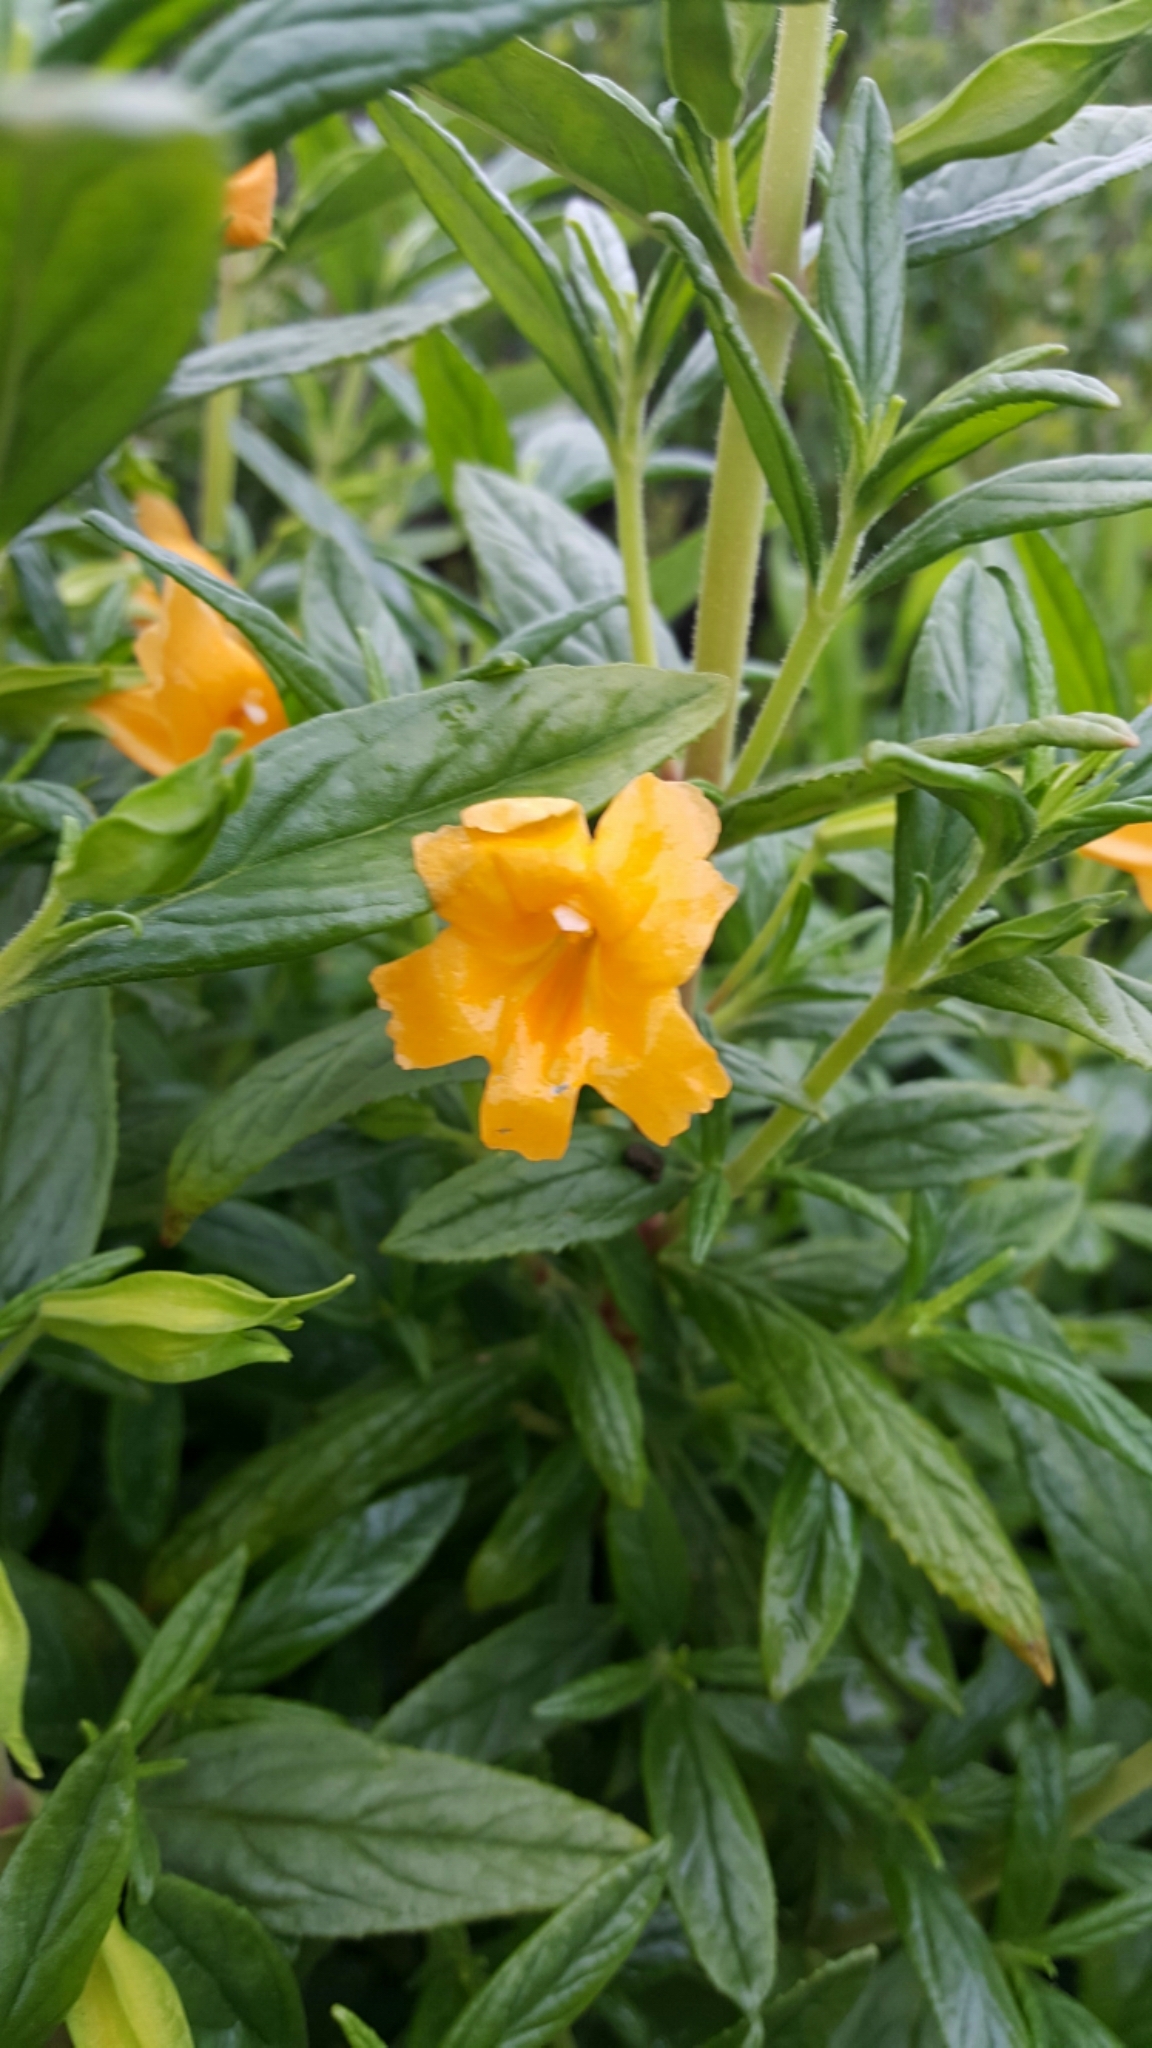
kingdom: Plantae
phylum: Tracheophyta
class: Magnoliopsida
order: Lamiales
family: Phrymaceae
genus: Diplacus
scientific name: Diplacus aurantiacus
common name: Bush monkey-flower
